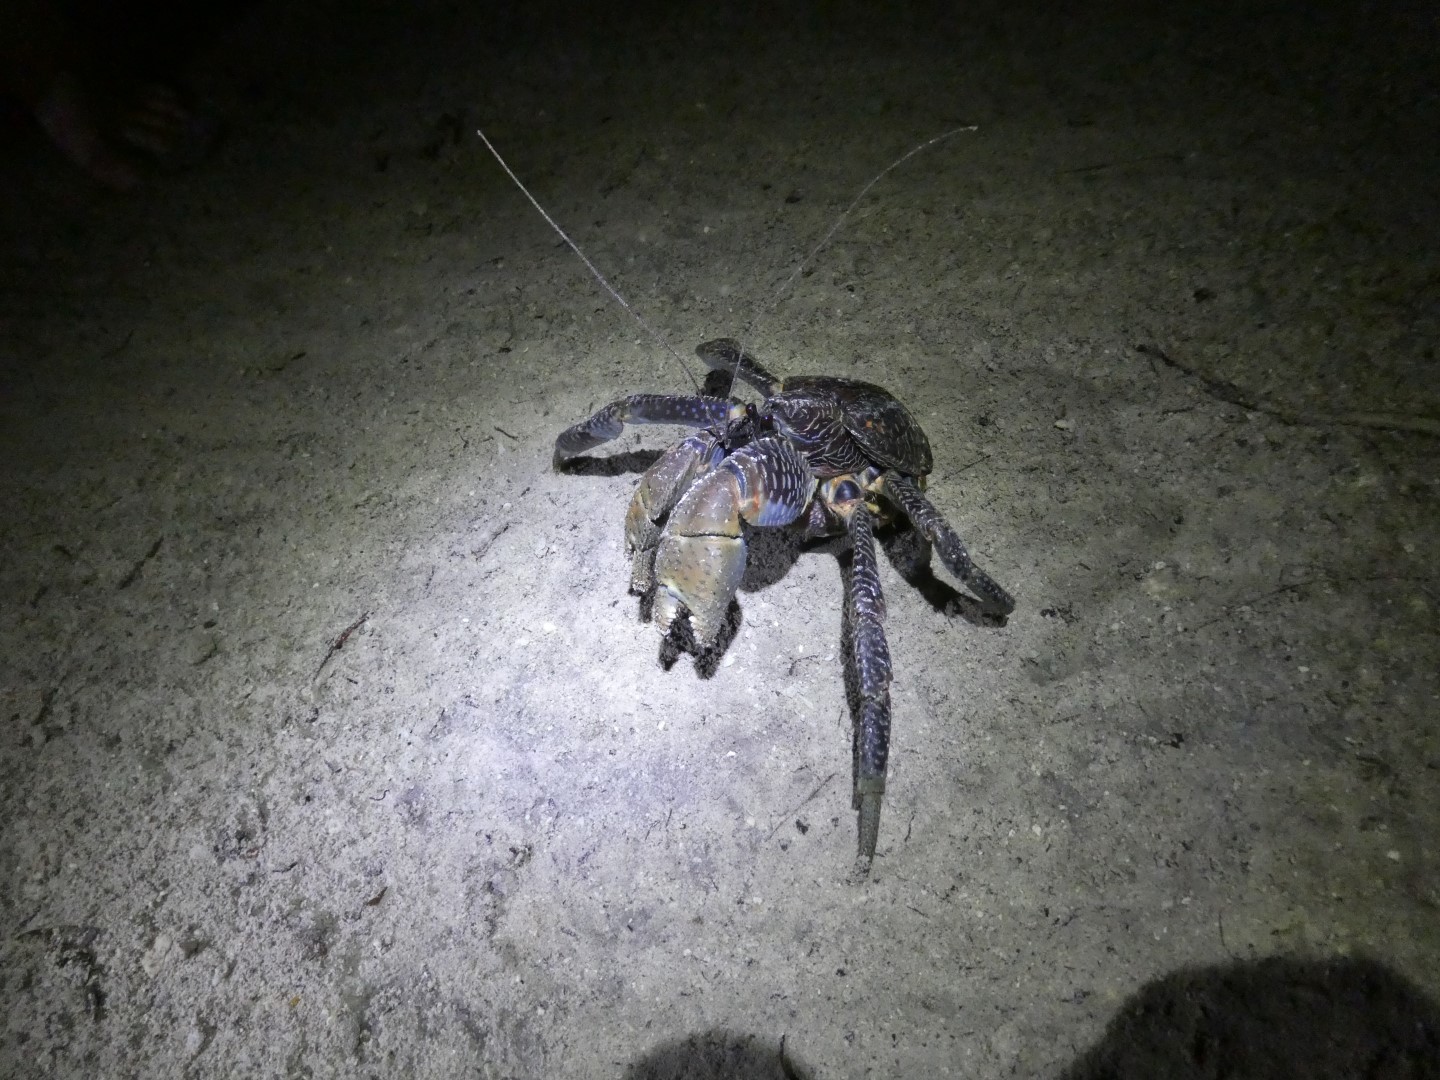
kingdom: Animalia
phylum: Arthropoda
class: Malacostraca
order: Decapoda
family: Coenobitidae
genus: Birgus
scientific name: Birgus latro
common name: Coconut crab
